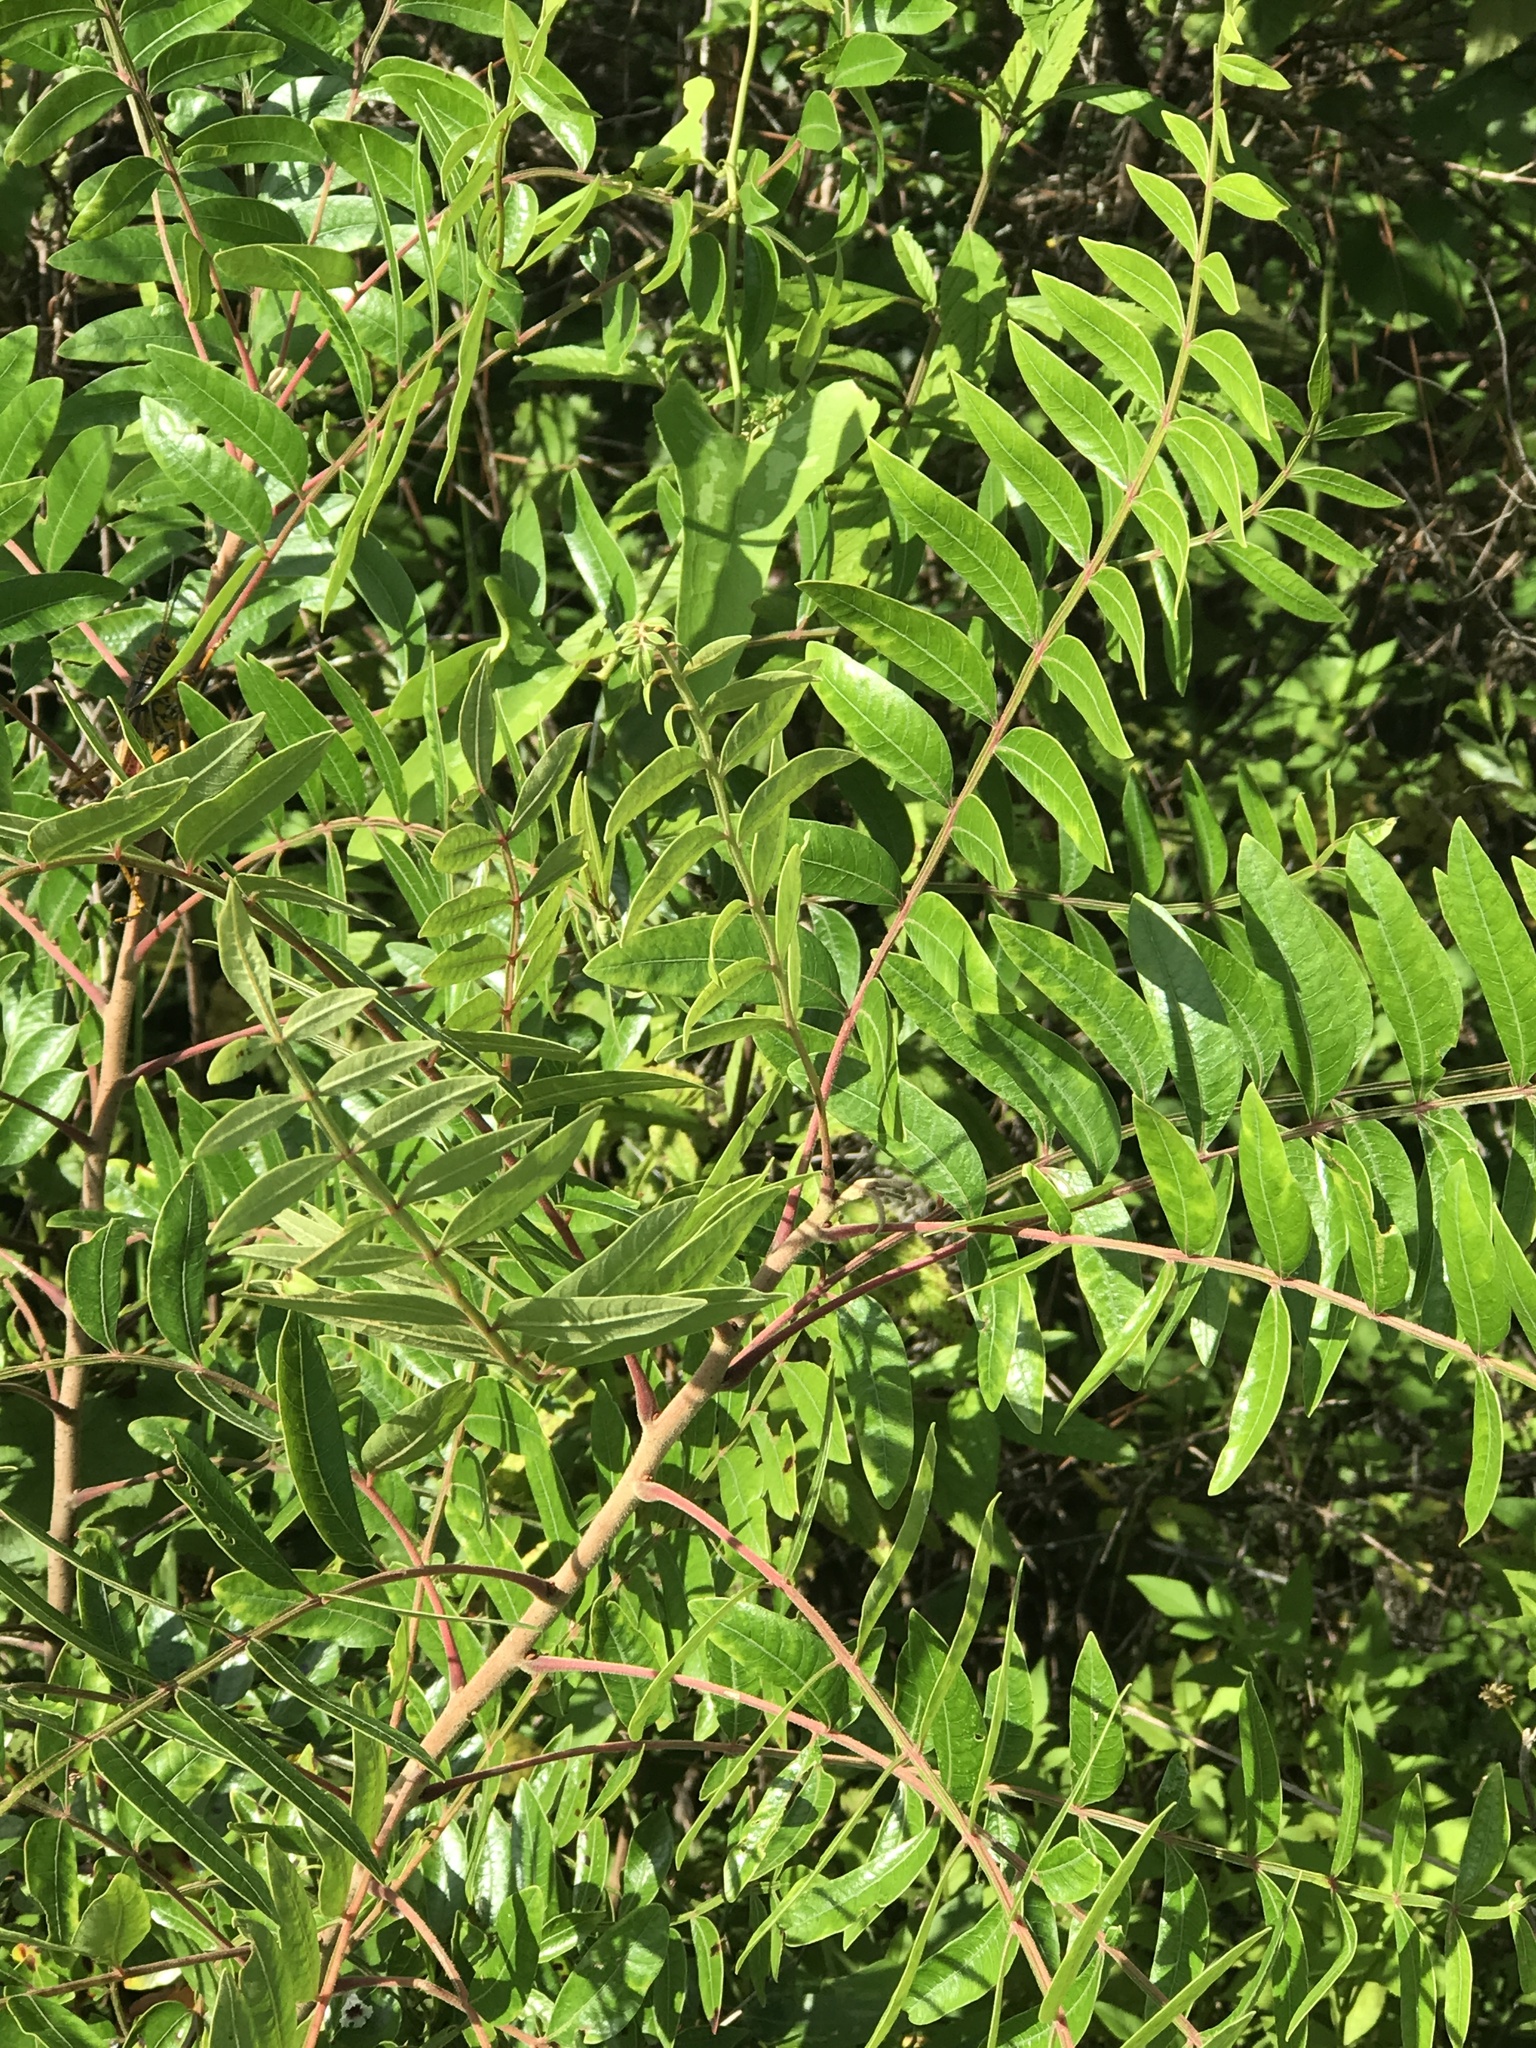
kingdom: Plantae
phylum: Tracheophyta
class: Magnoliopsida
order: Sapindales
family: Anacardiaceae
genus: Rhus
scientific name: Rhus copallina
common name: Shining sumac
